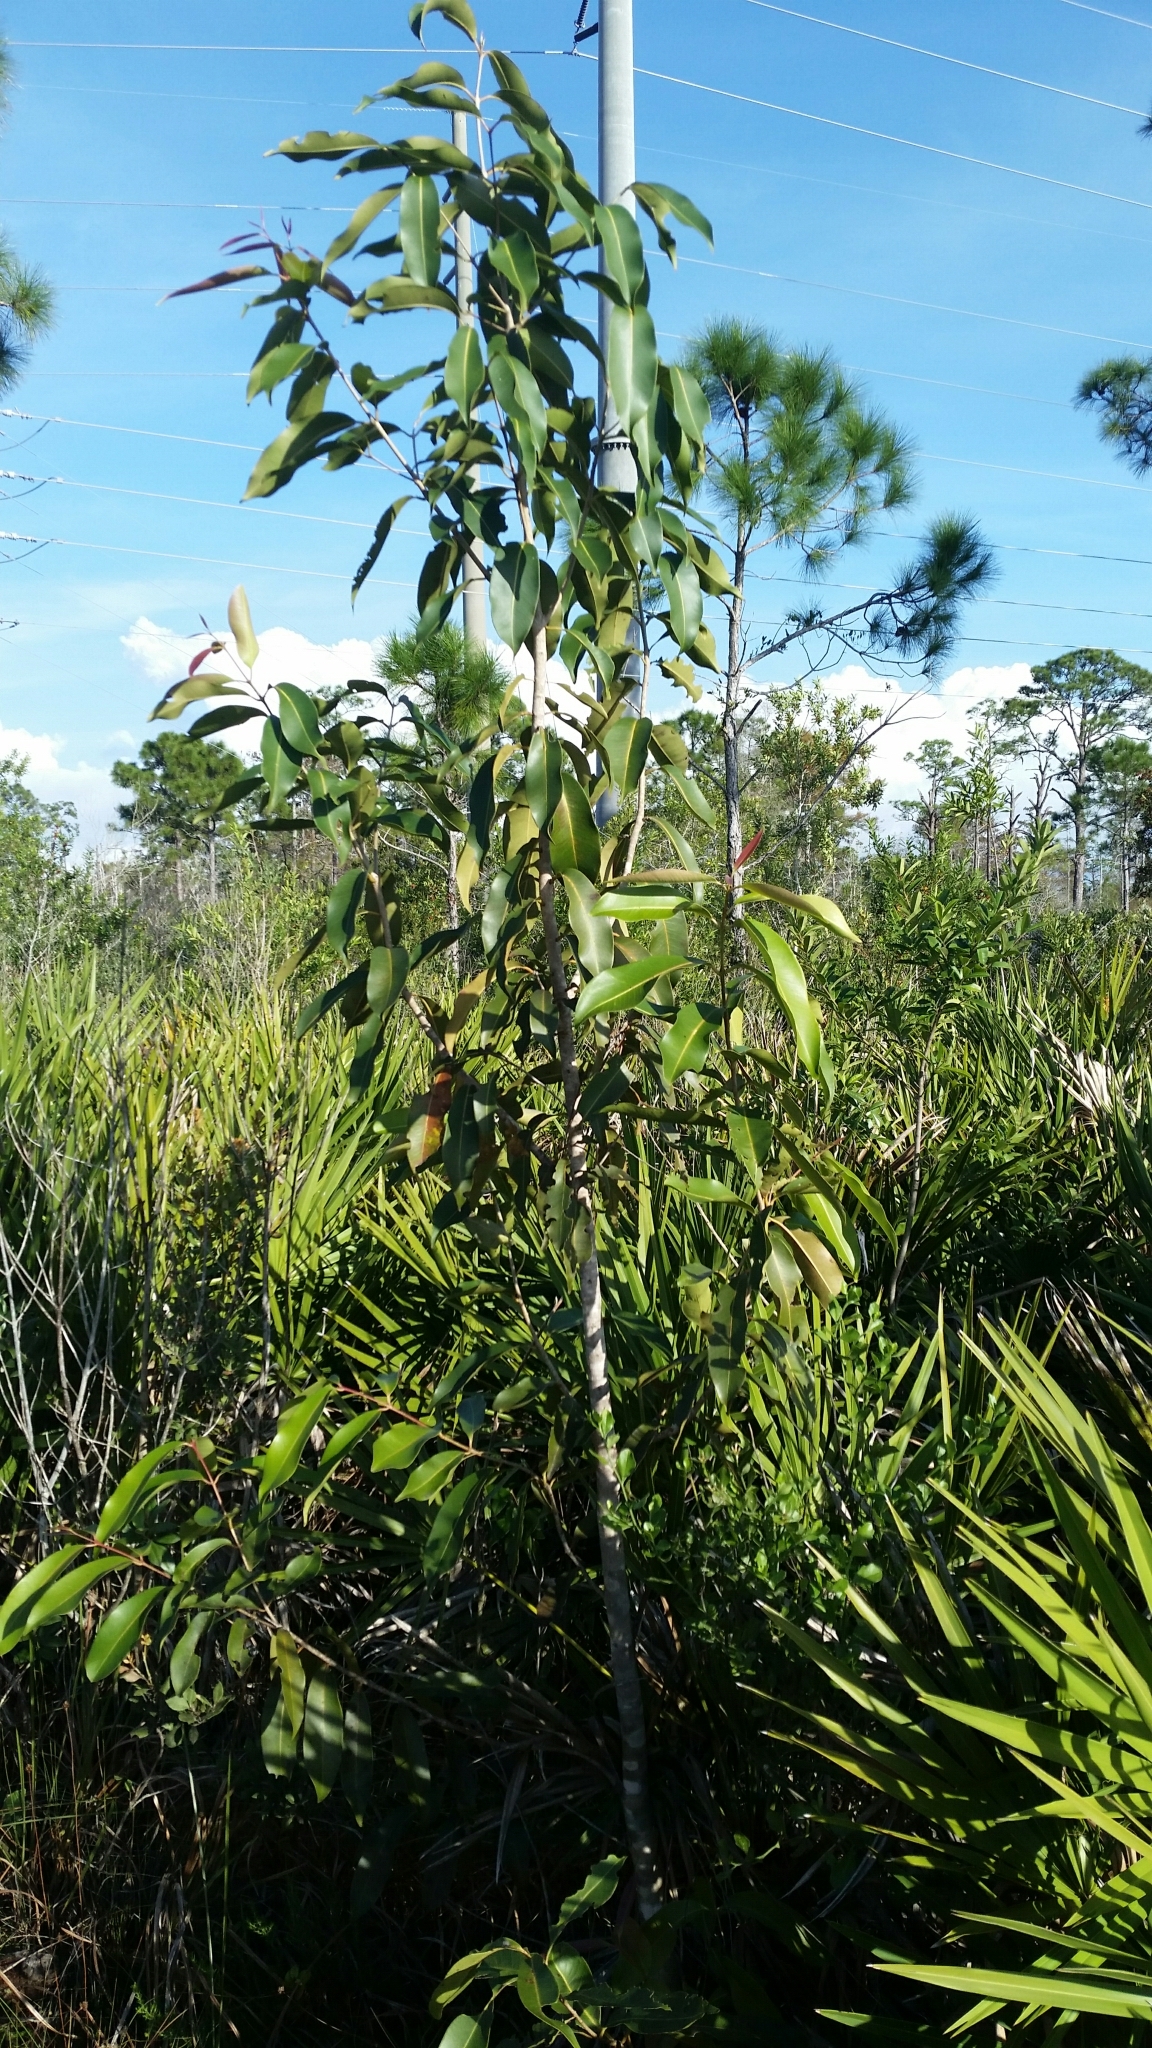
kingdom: Plantae
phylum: Tracheophyta
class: Magnoliopsida
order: Myrtales
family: Myrtaceae
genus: Syzygium
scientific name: Syzygium cumini
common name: Java plum
